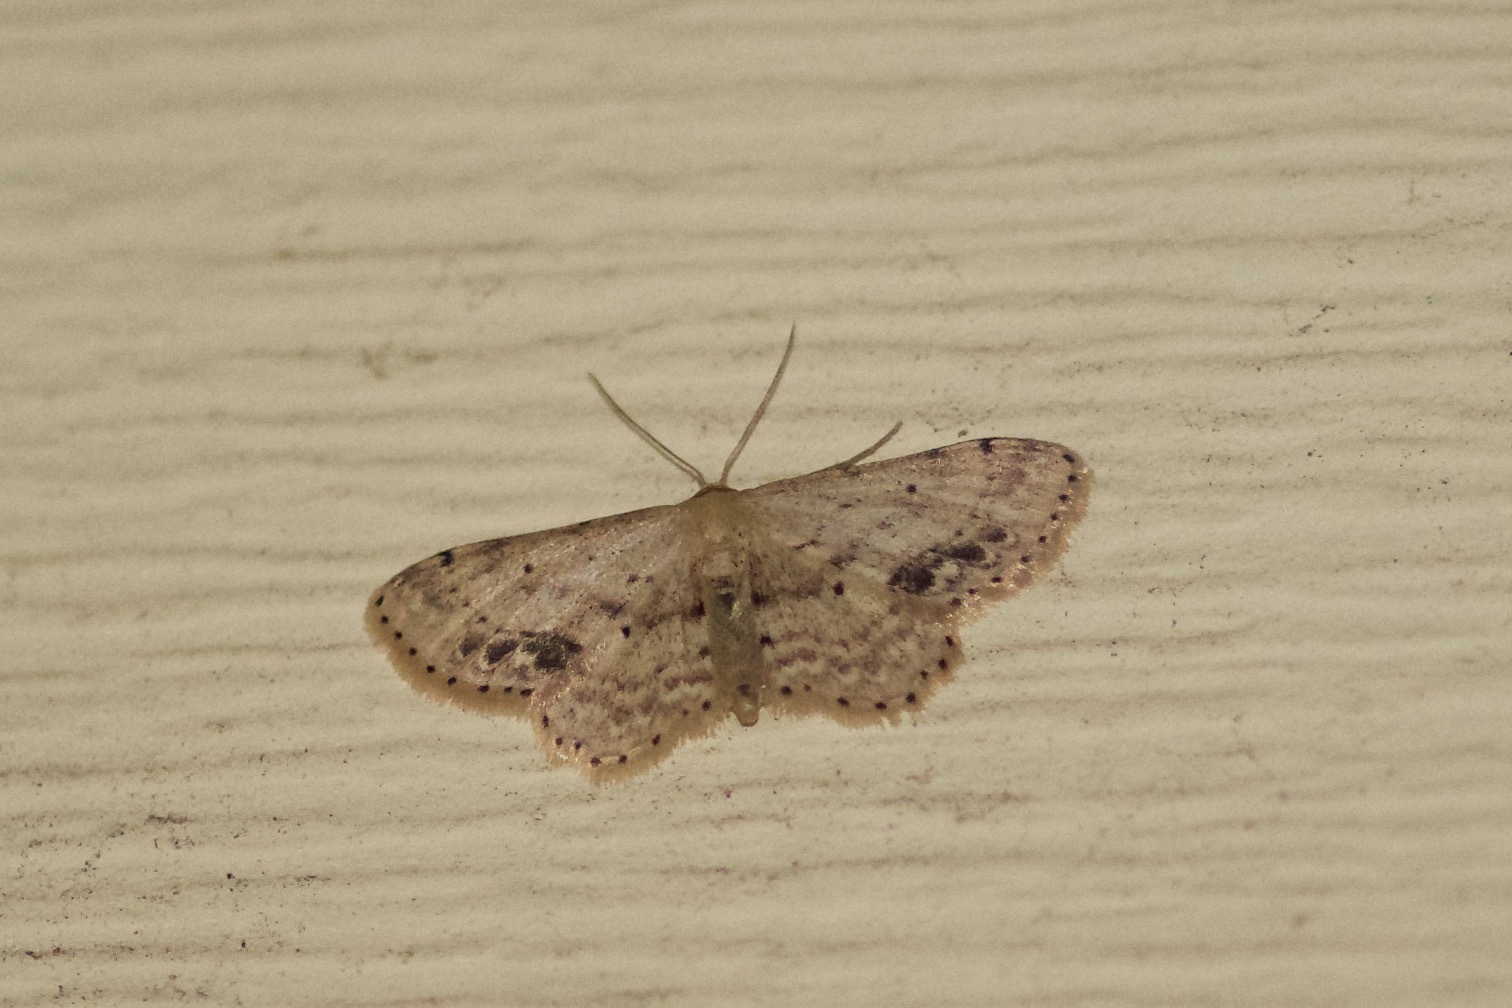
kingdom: Animalia
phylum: Arthropoda
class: Insecta
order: Lepidoptera
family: Geometridae
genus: Idaea
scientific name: Idaea dimidiata
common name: Single-dotted wave
